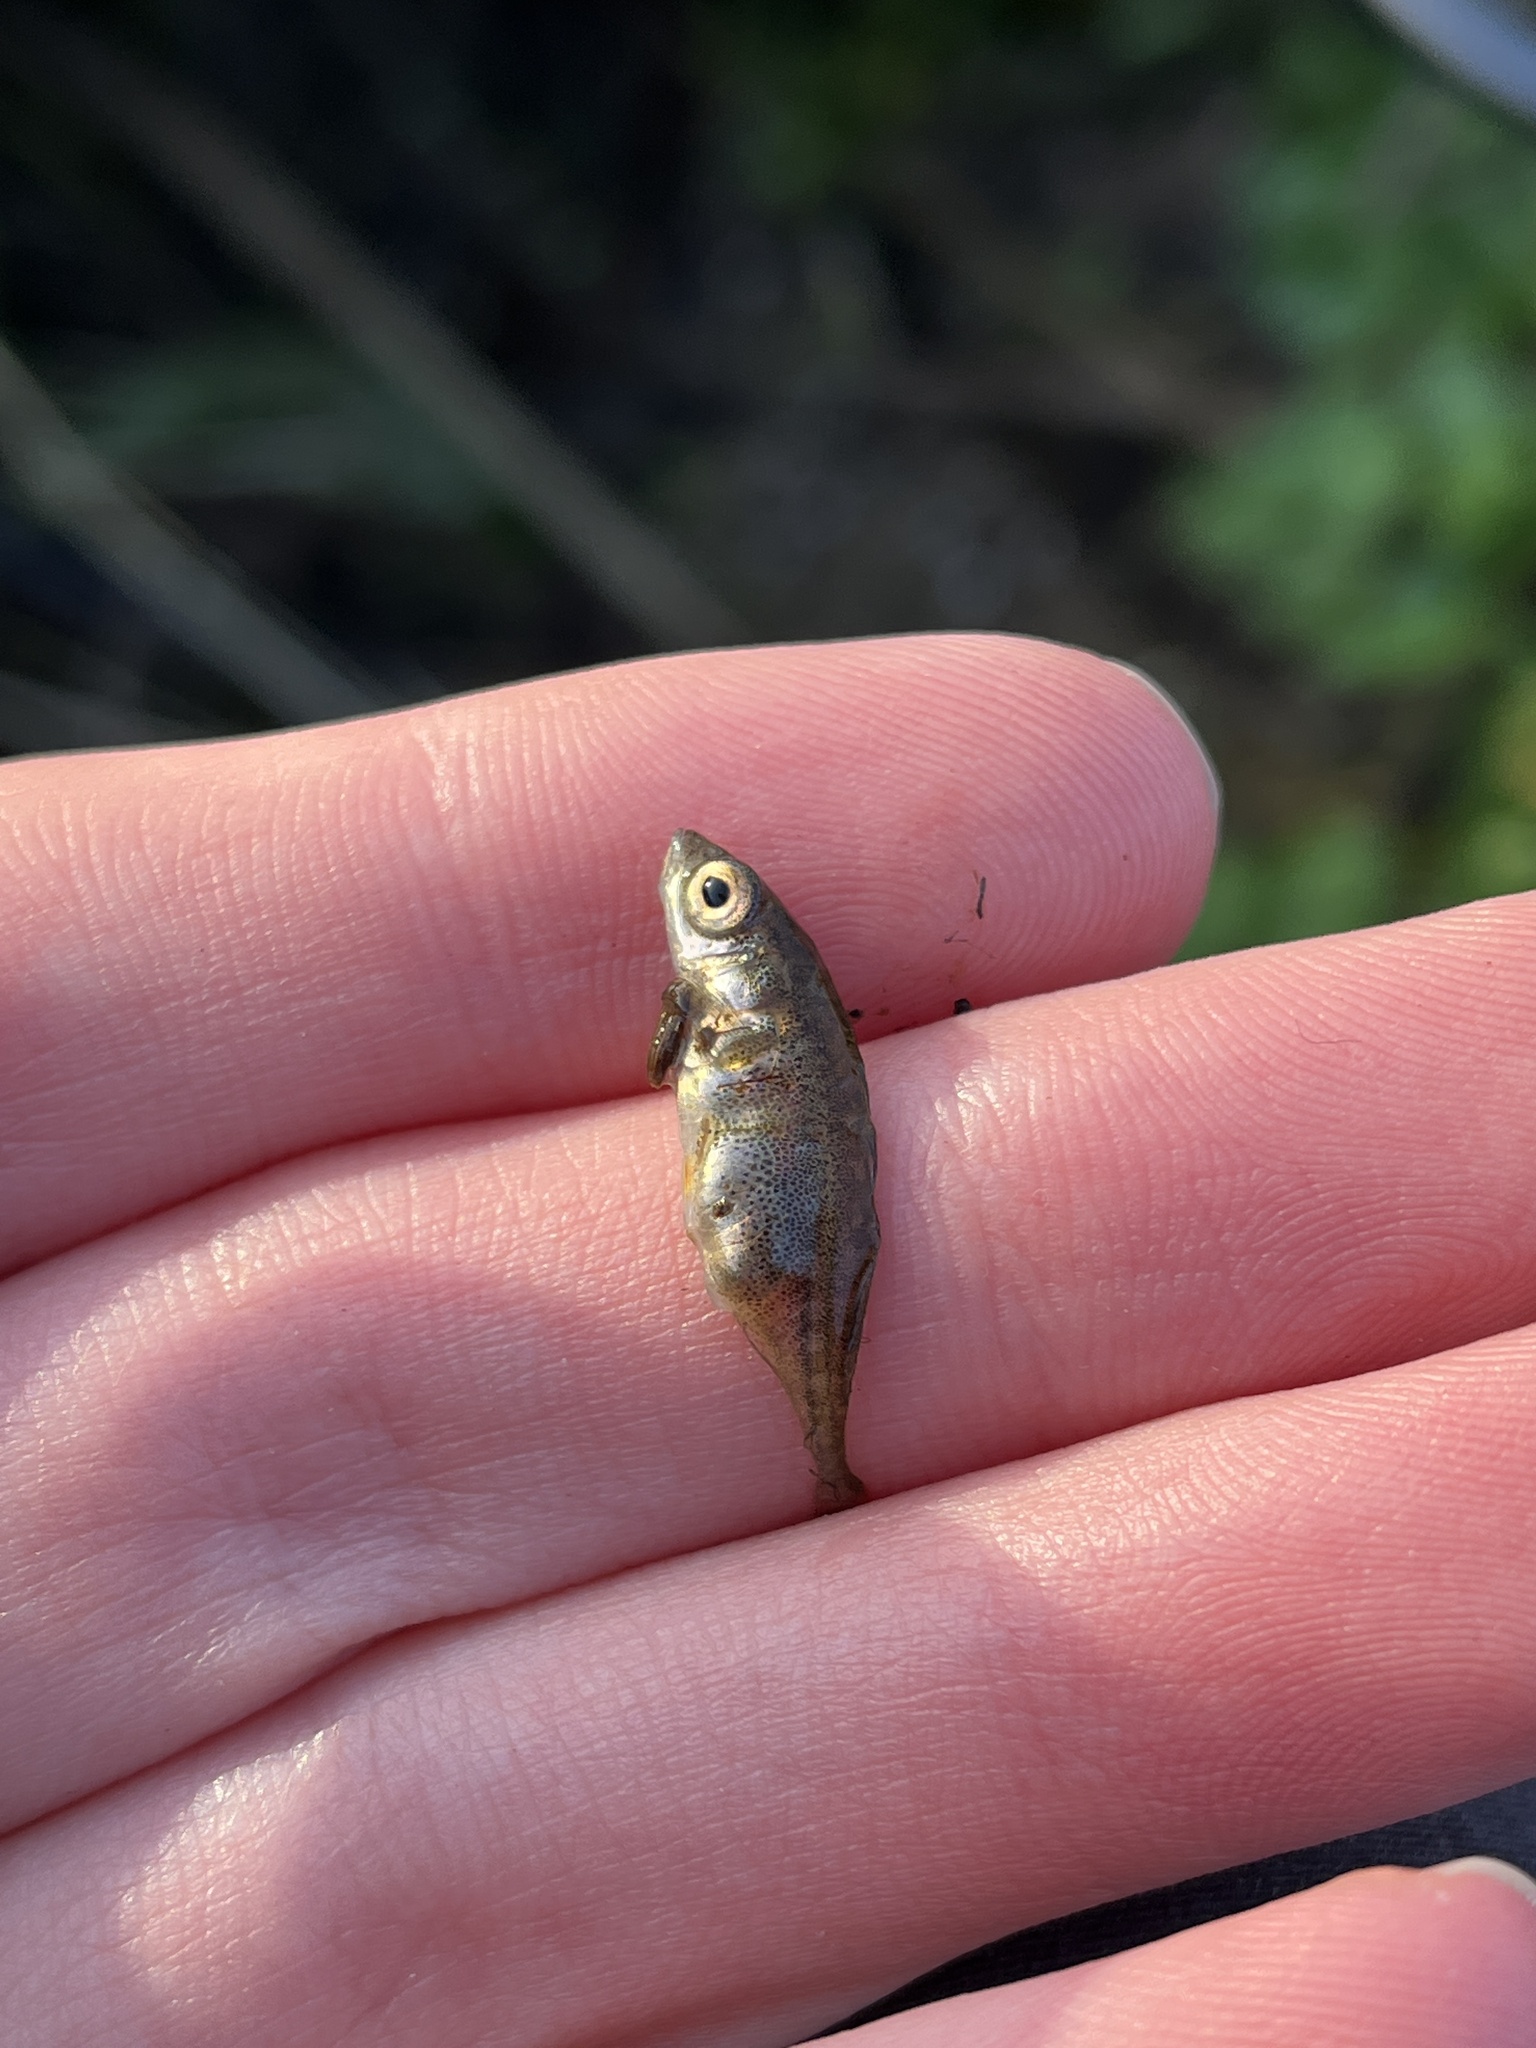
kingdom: Animalia
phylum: Chordata
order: Gasterosteiformes
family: Gasterosteidae
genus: Gasterosteus
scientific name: Gasterosteus aculeatus
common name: Three-spined stickleback
